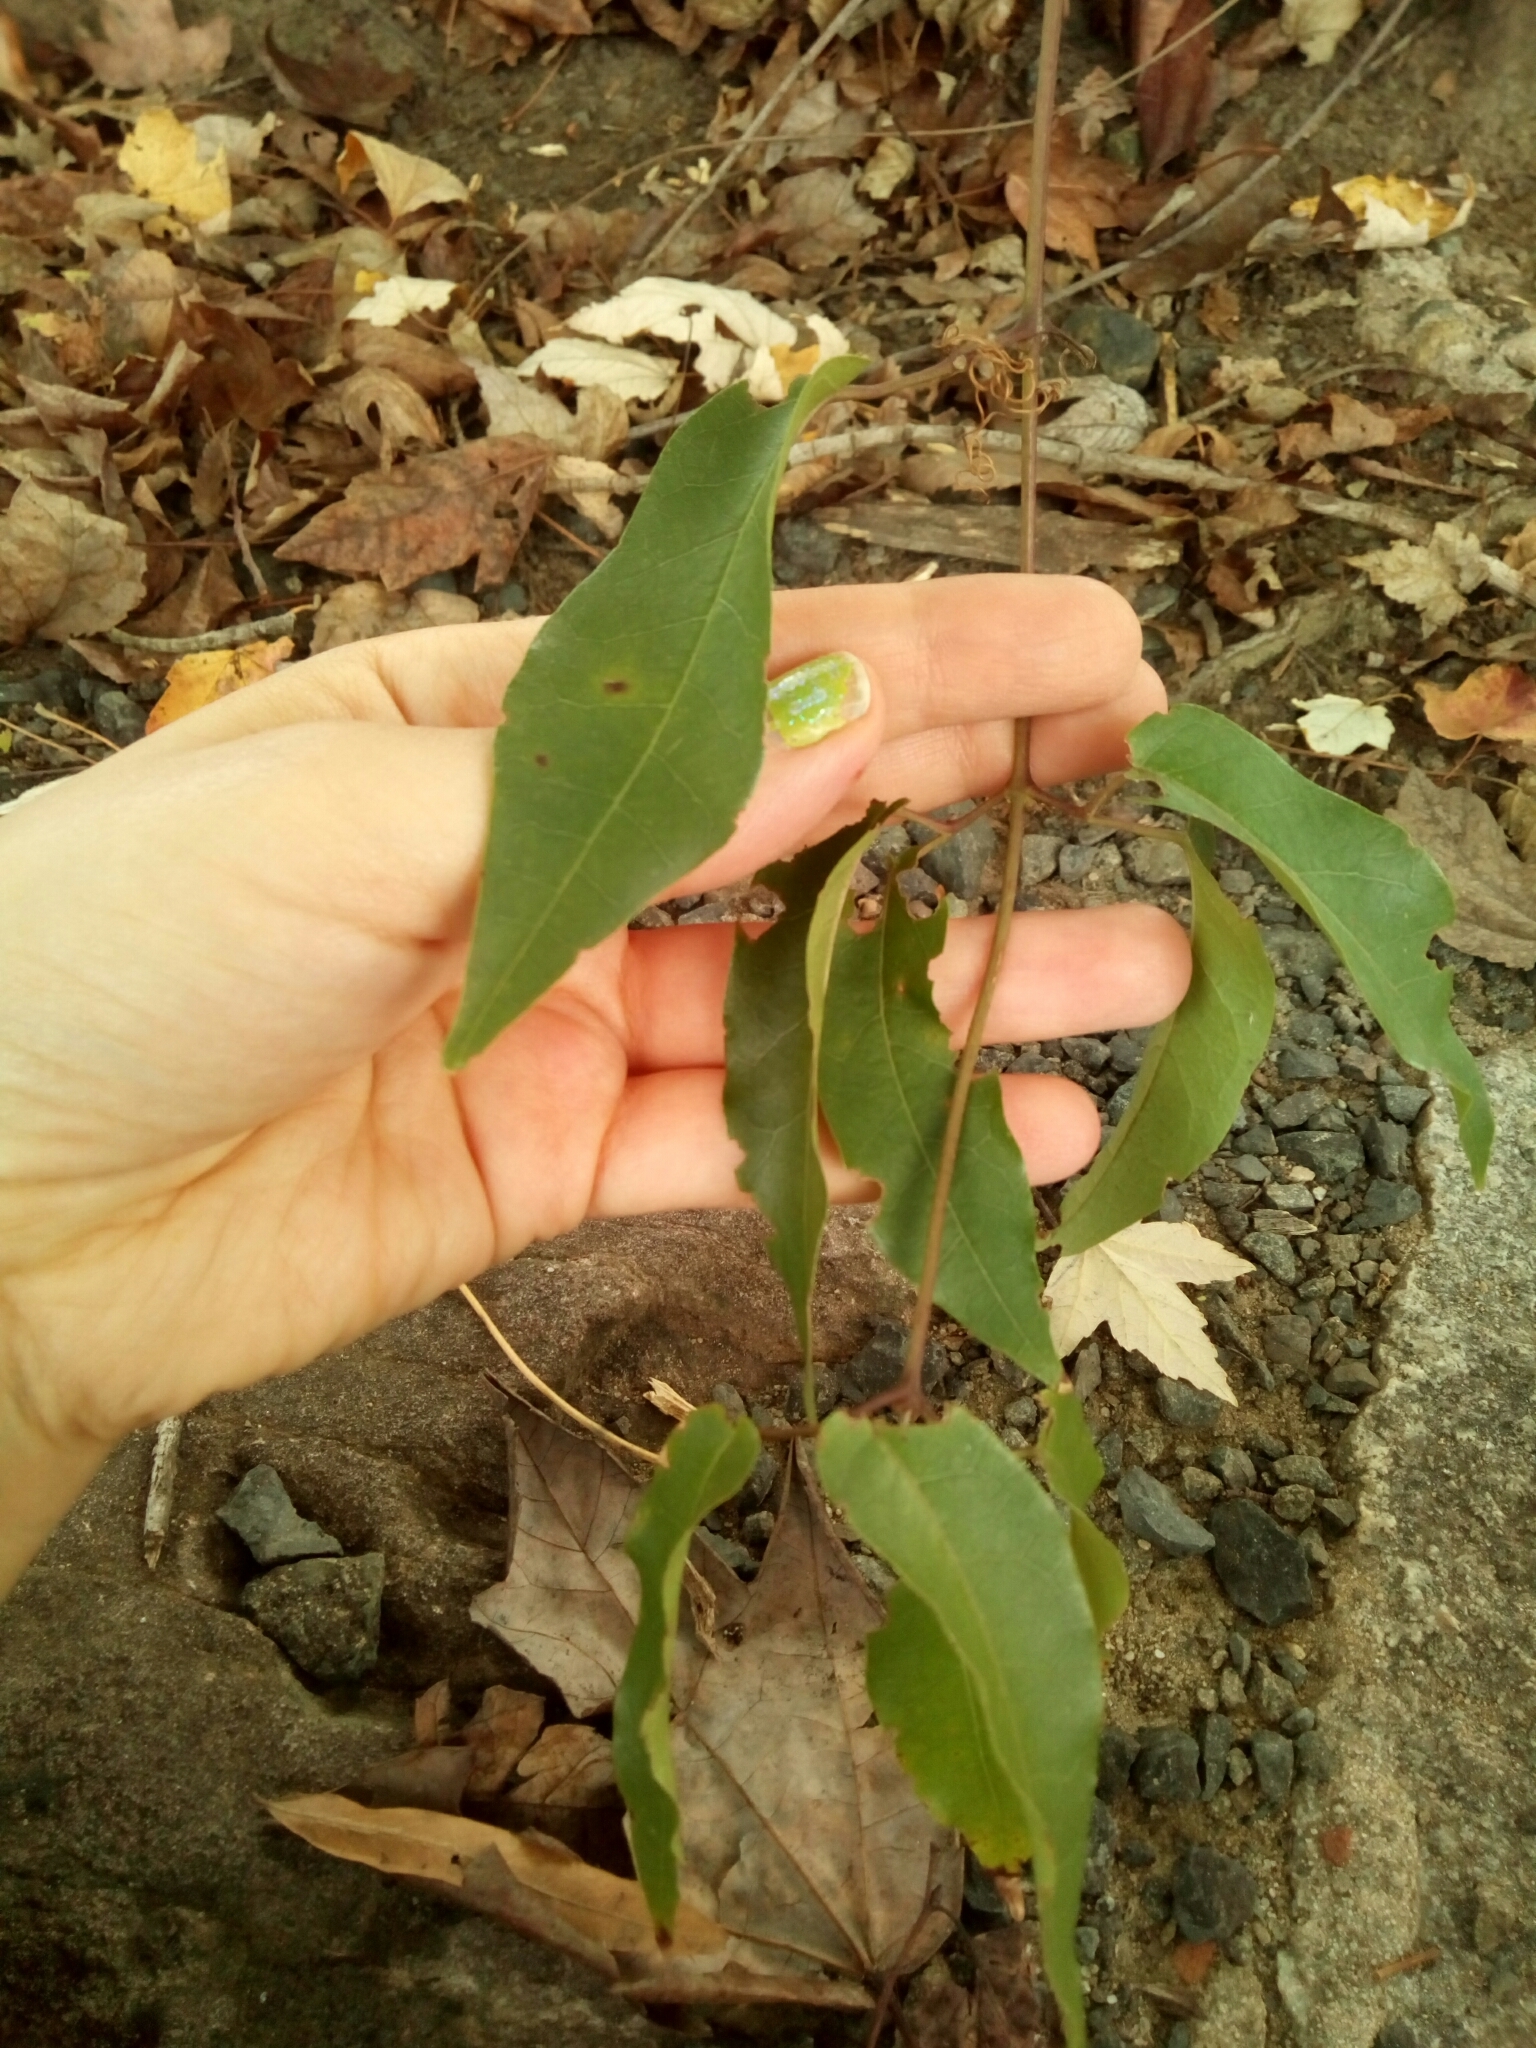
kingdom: Plantae
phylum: Tracheophyta
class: Magnoliopsida
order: Lamiales
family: Bignoniaceae
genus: Bignonia
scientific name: Bignonia capreolata
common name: Crossvine
